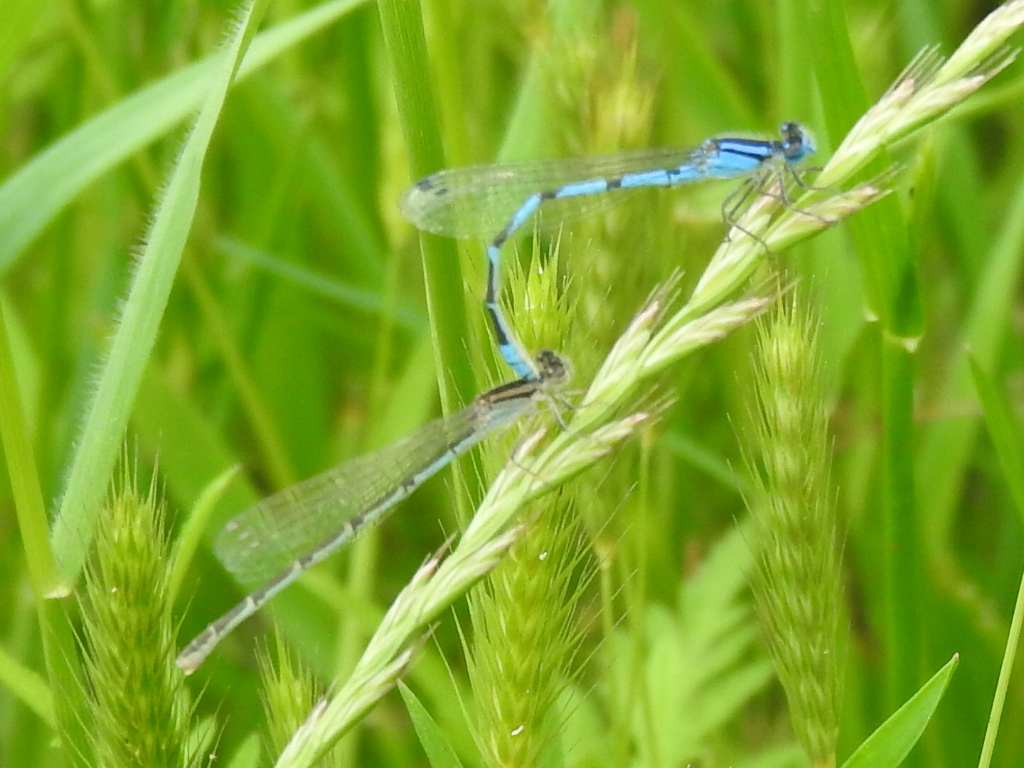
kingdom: Animalia
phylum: Arthropoda
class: Insecta
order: Odonata
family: Coenagrionidae
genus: Enallagma
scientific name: Enallagma civile
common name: Damselfly
